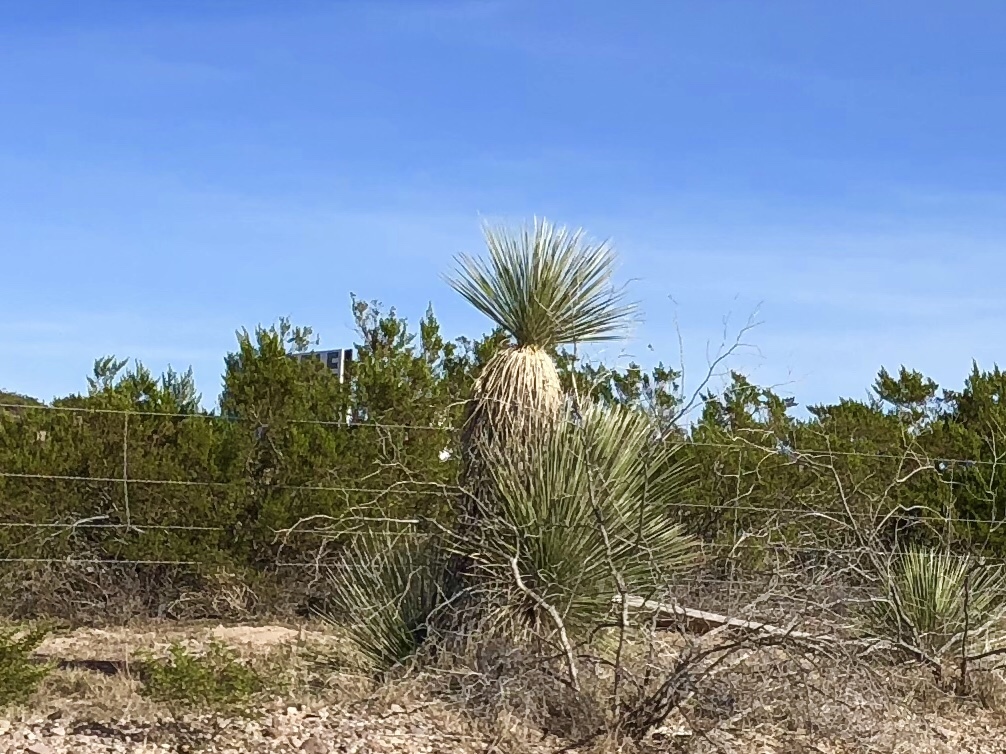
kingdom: Plantae
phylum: Tracheophyta
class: Liliopsida
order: Asparagales
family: Asparagaceae
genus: Yucca
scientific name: Yucca elata
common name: Palmella
